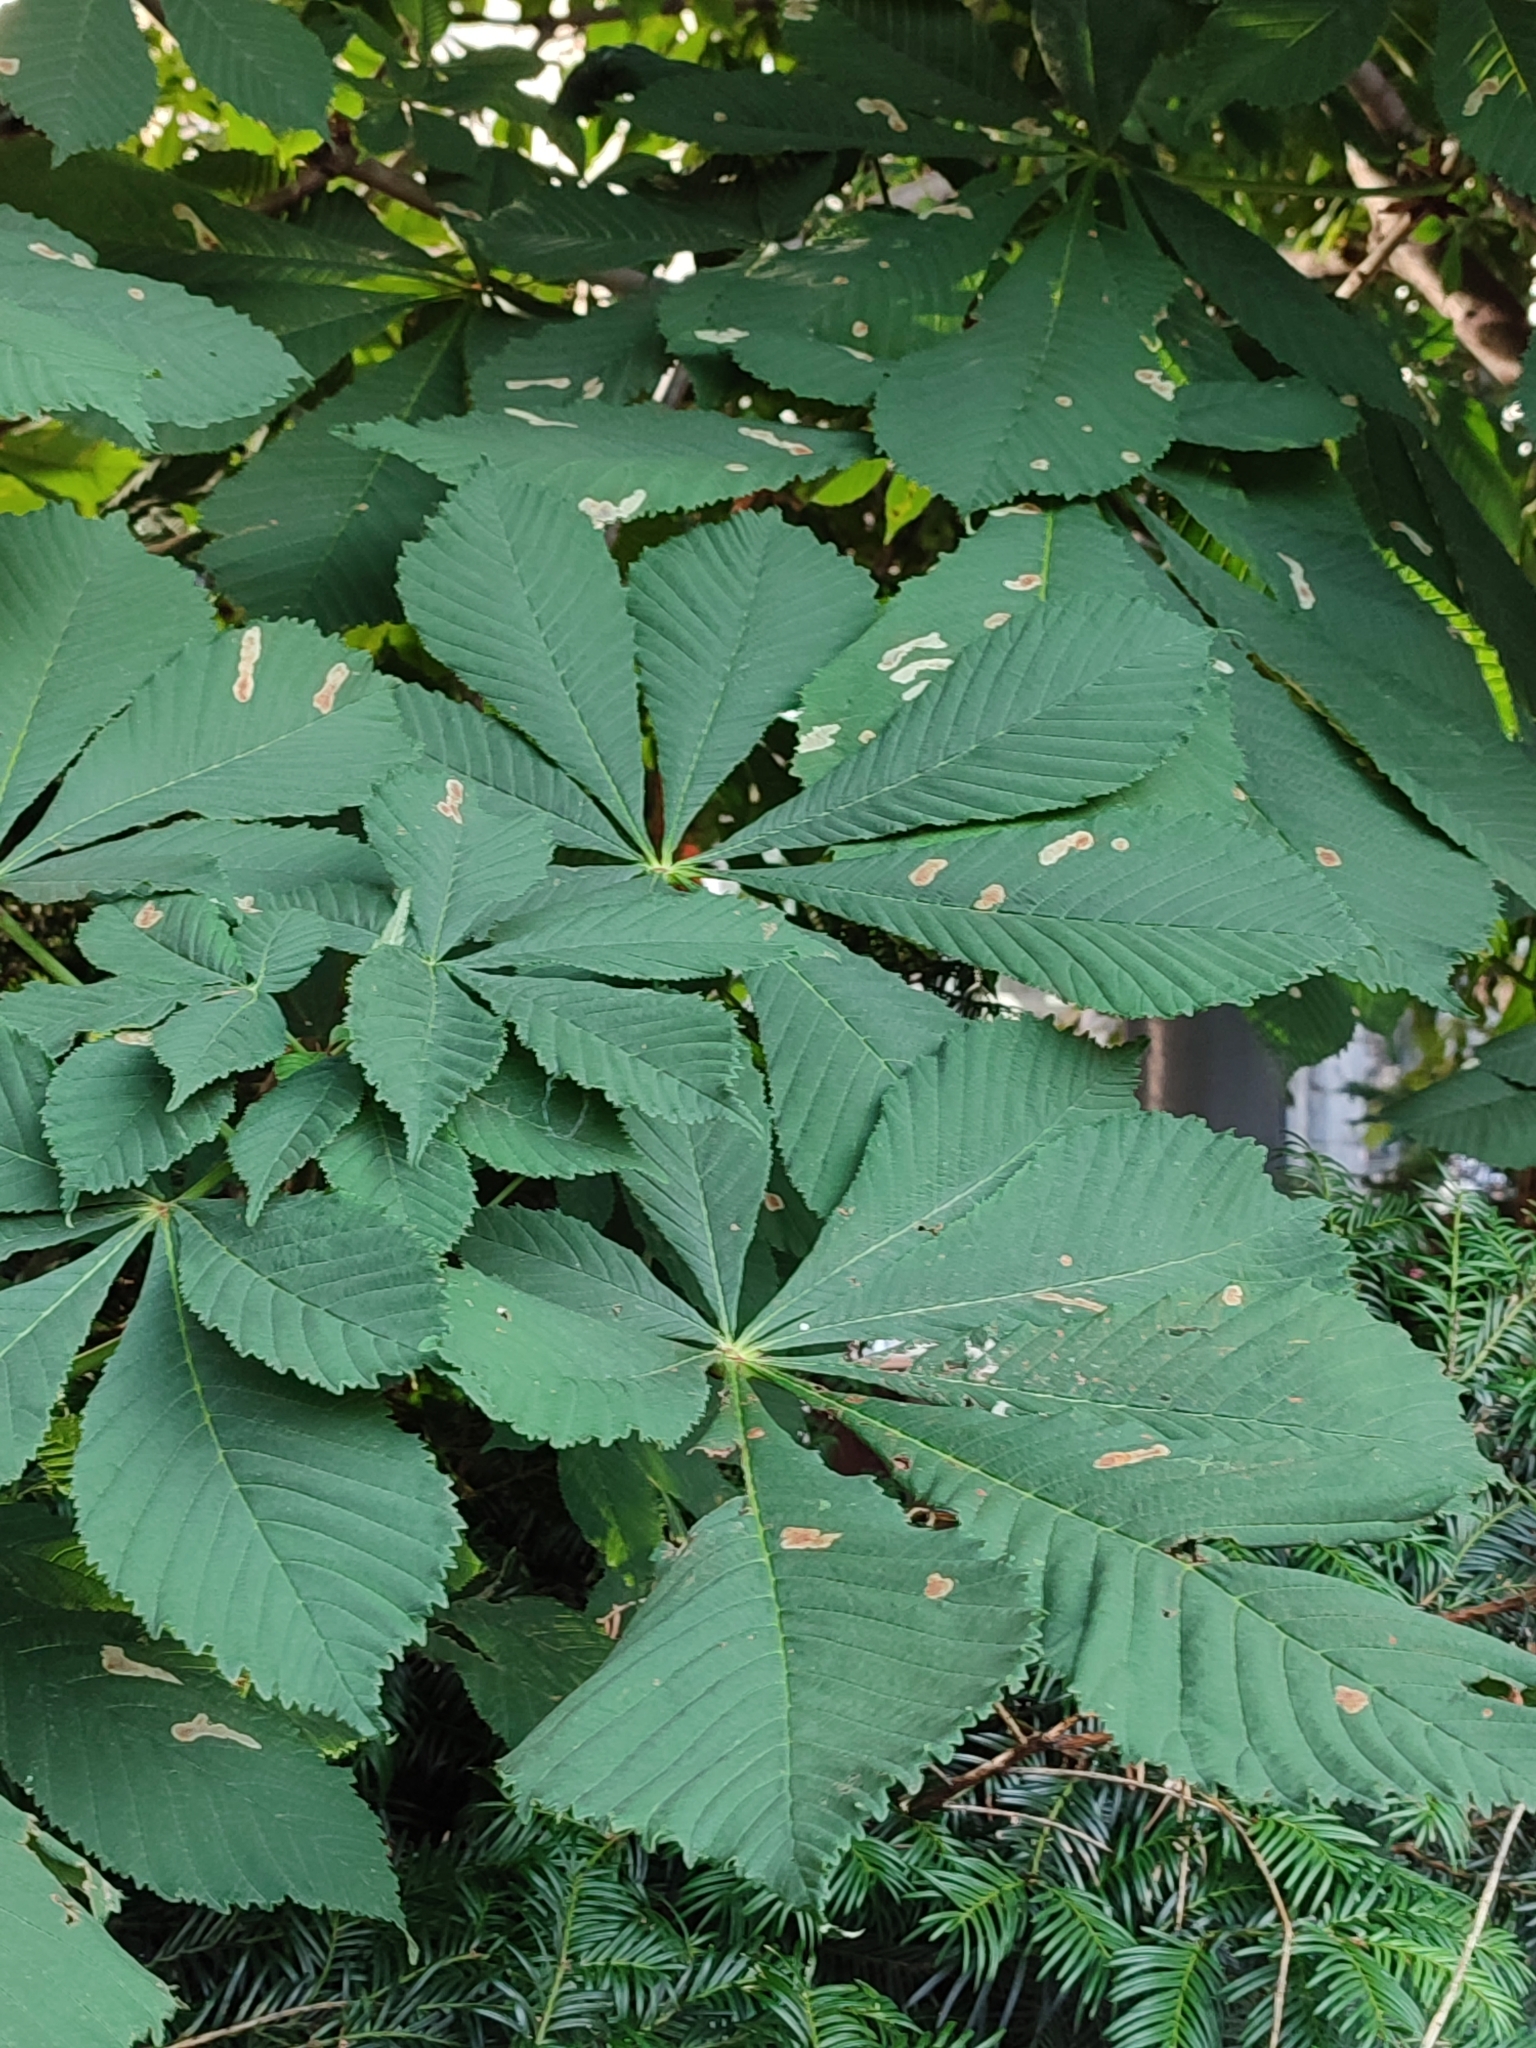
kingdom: Animalia
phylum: Arthropoda
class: Insecta
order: Lepidoptera
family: Gracillariidae
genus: Cameraria
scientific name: Cameraria ohridella
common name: Horse-chestnut leaf-miner
